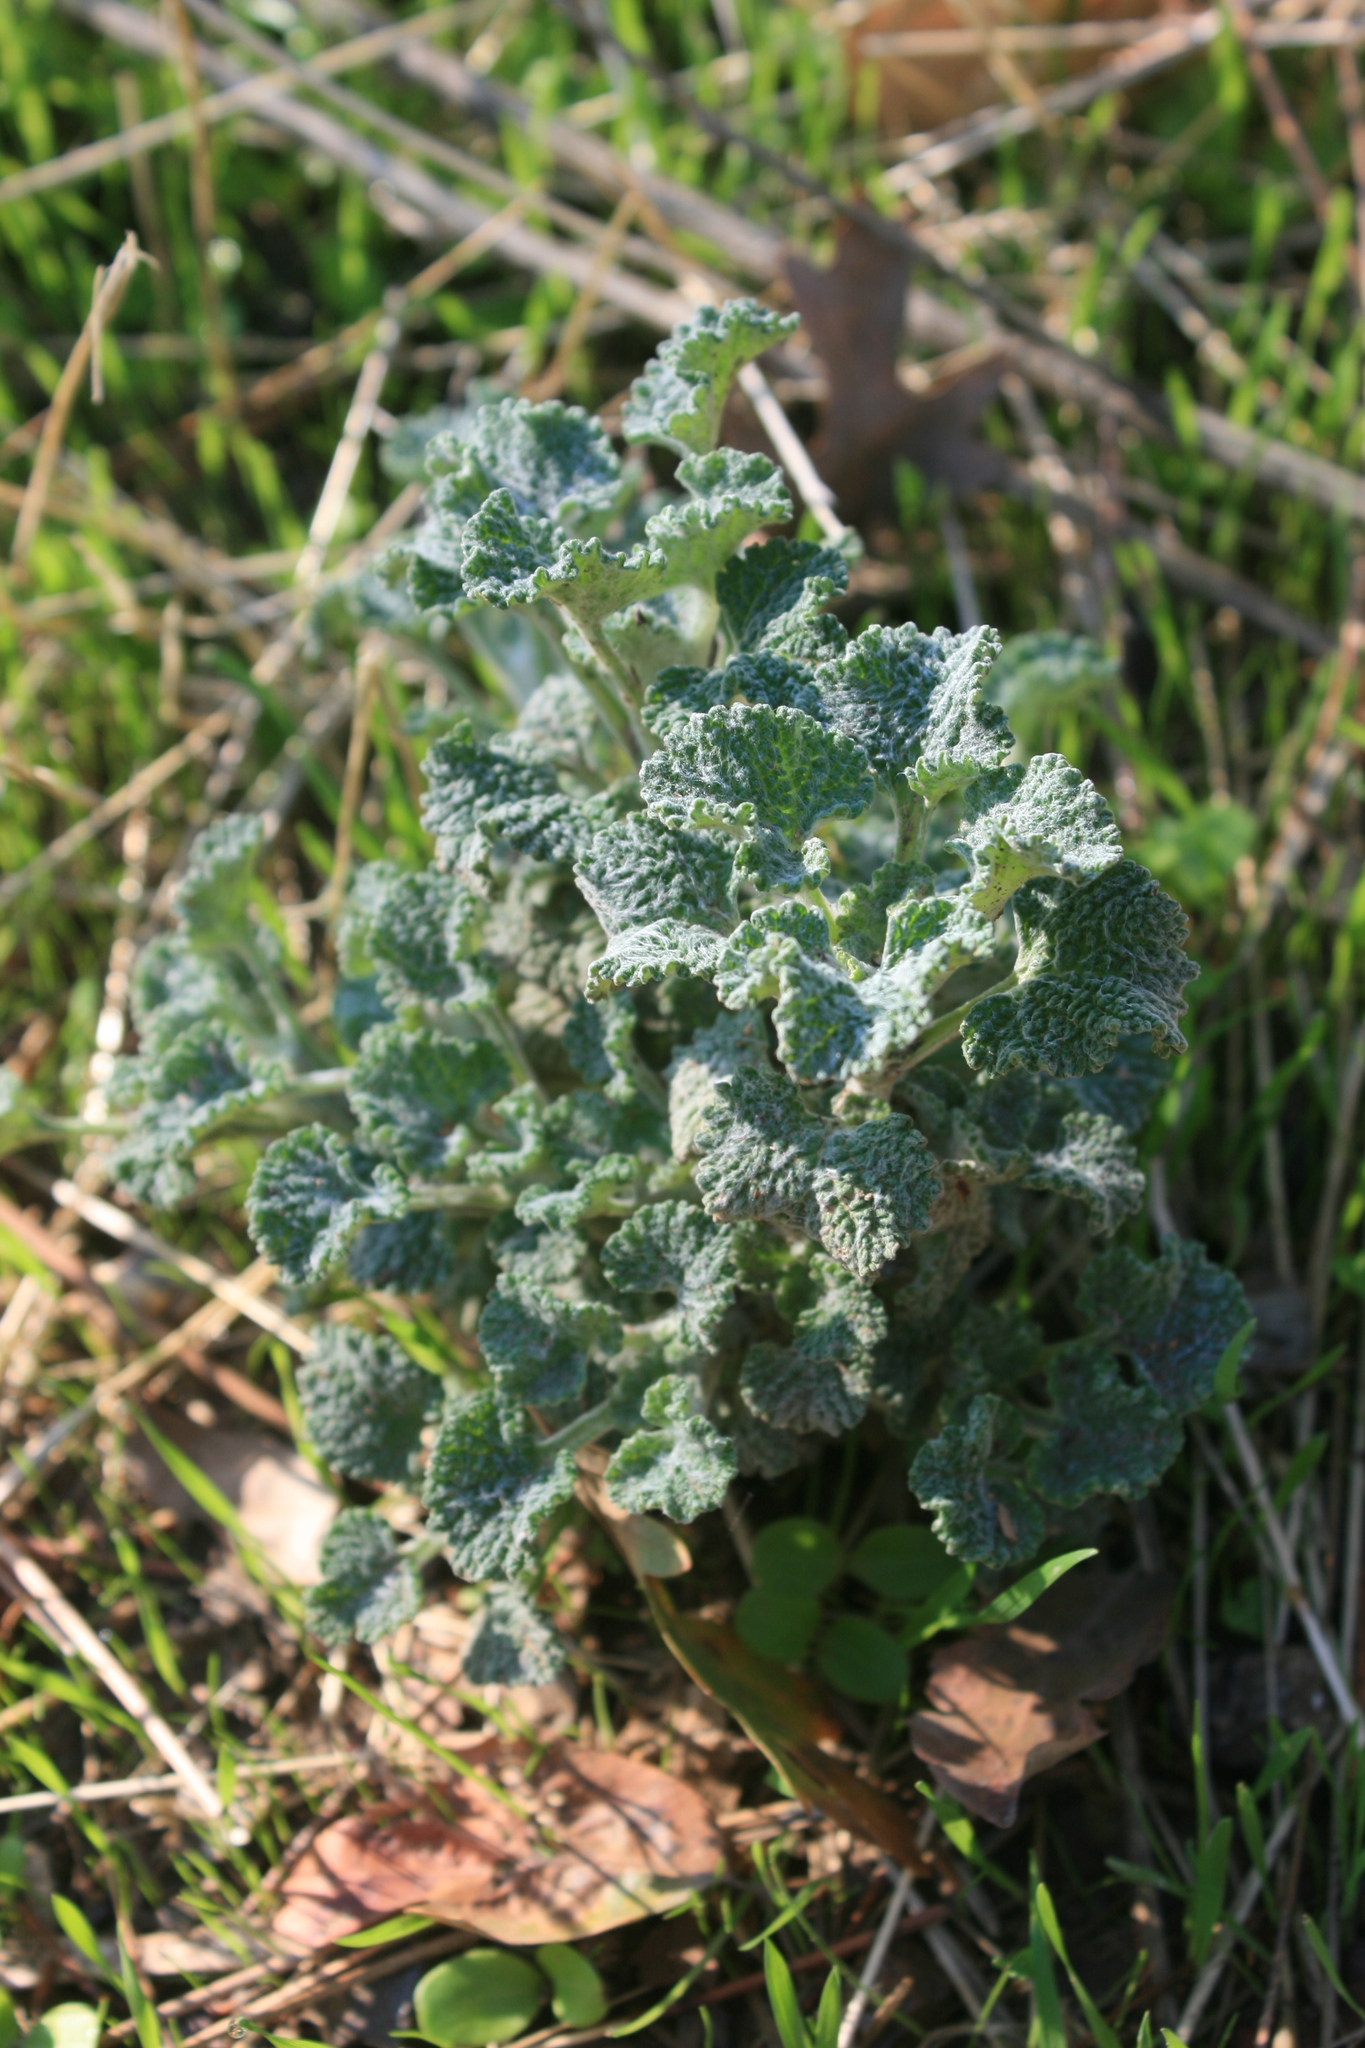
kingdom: Plantae
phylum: Tracheophyta
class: Magnoliopsida
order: Lamiales
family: Lamiaceae
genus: Marrubium
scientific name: Marrubium vulgare
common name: Horehound
